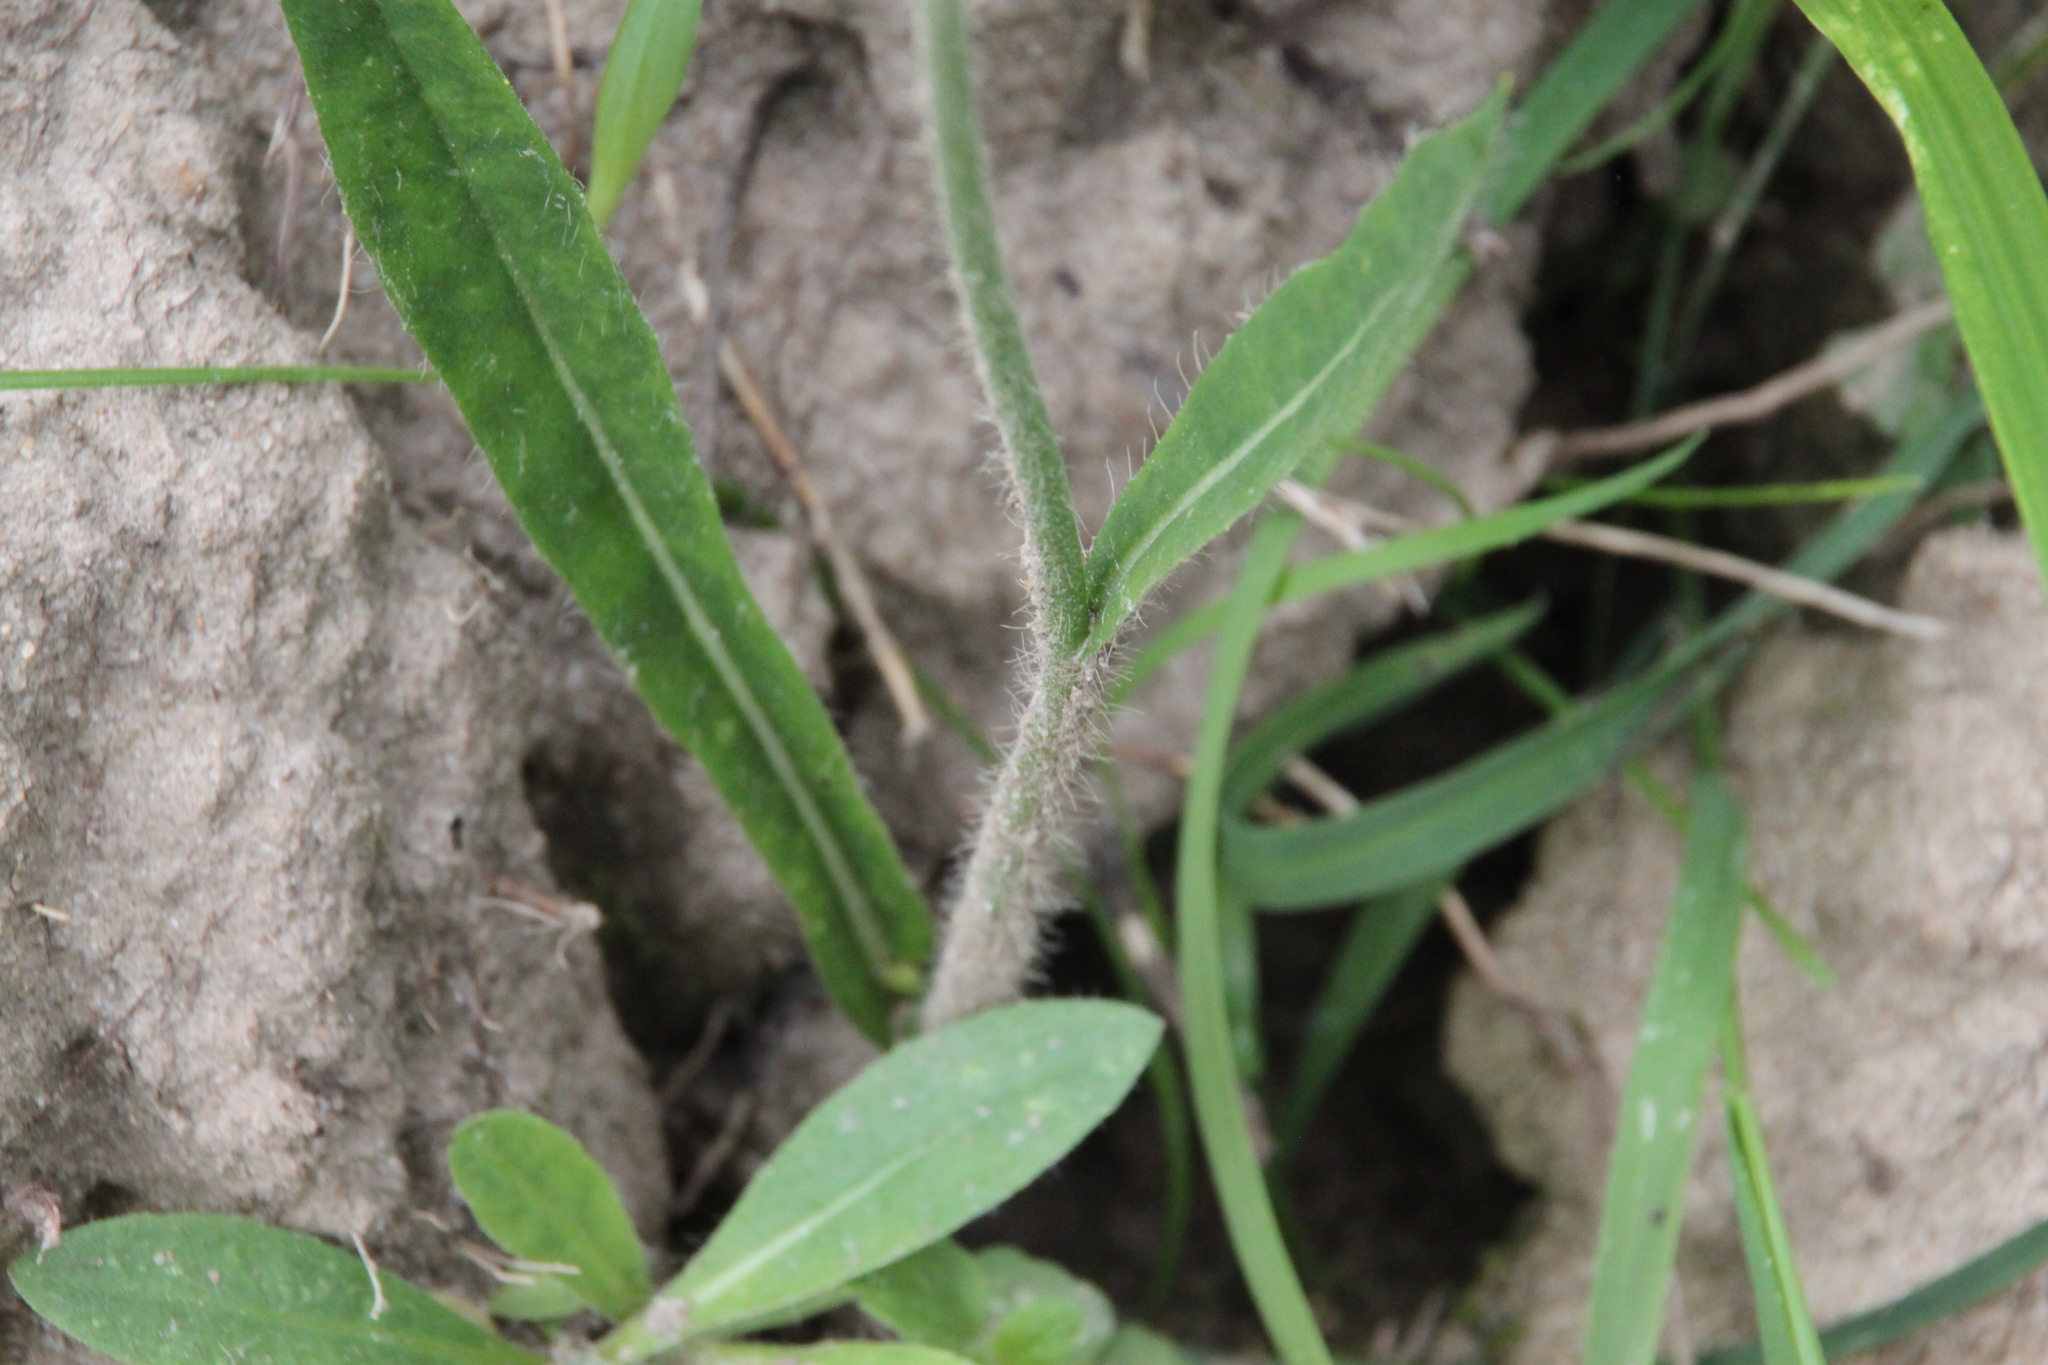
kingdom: Plantae
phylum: Tracheophyta
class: Magnoliopsida
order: Asterales
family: Asteraceae
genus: Pilosella
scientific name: Pilosella
